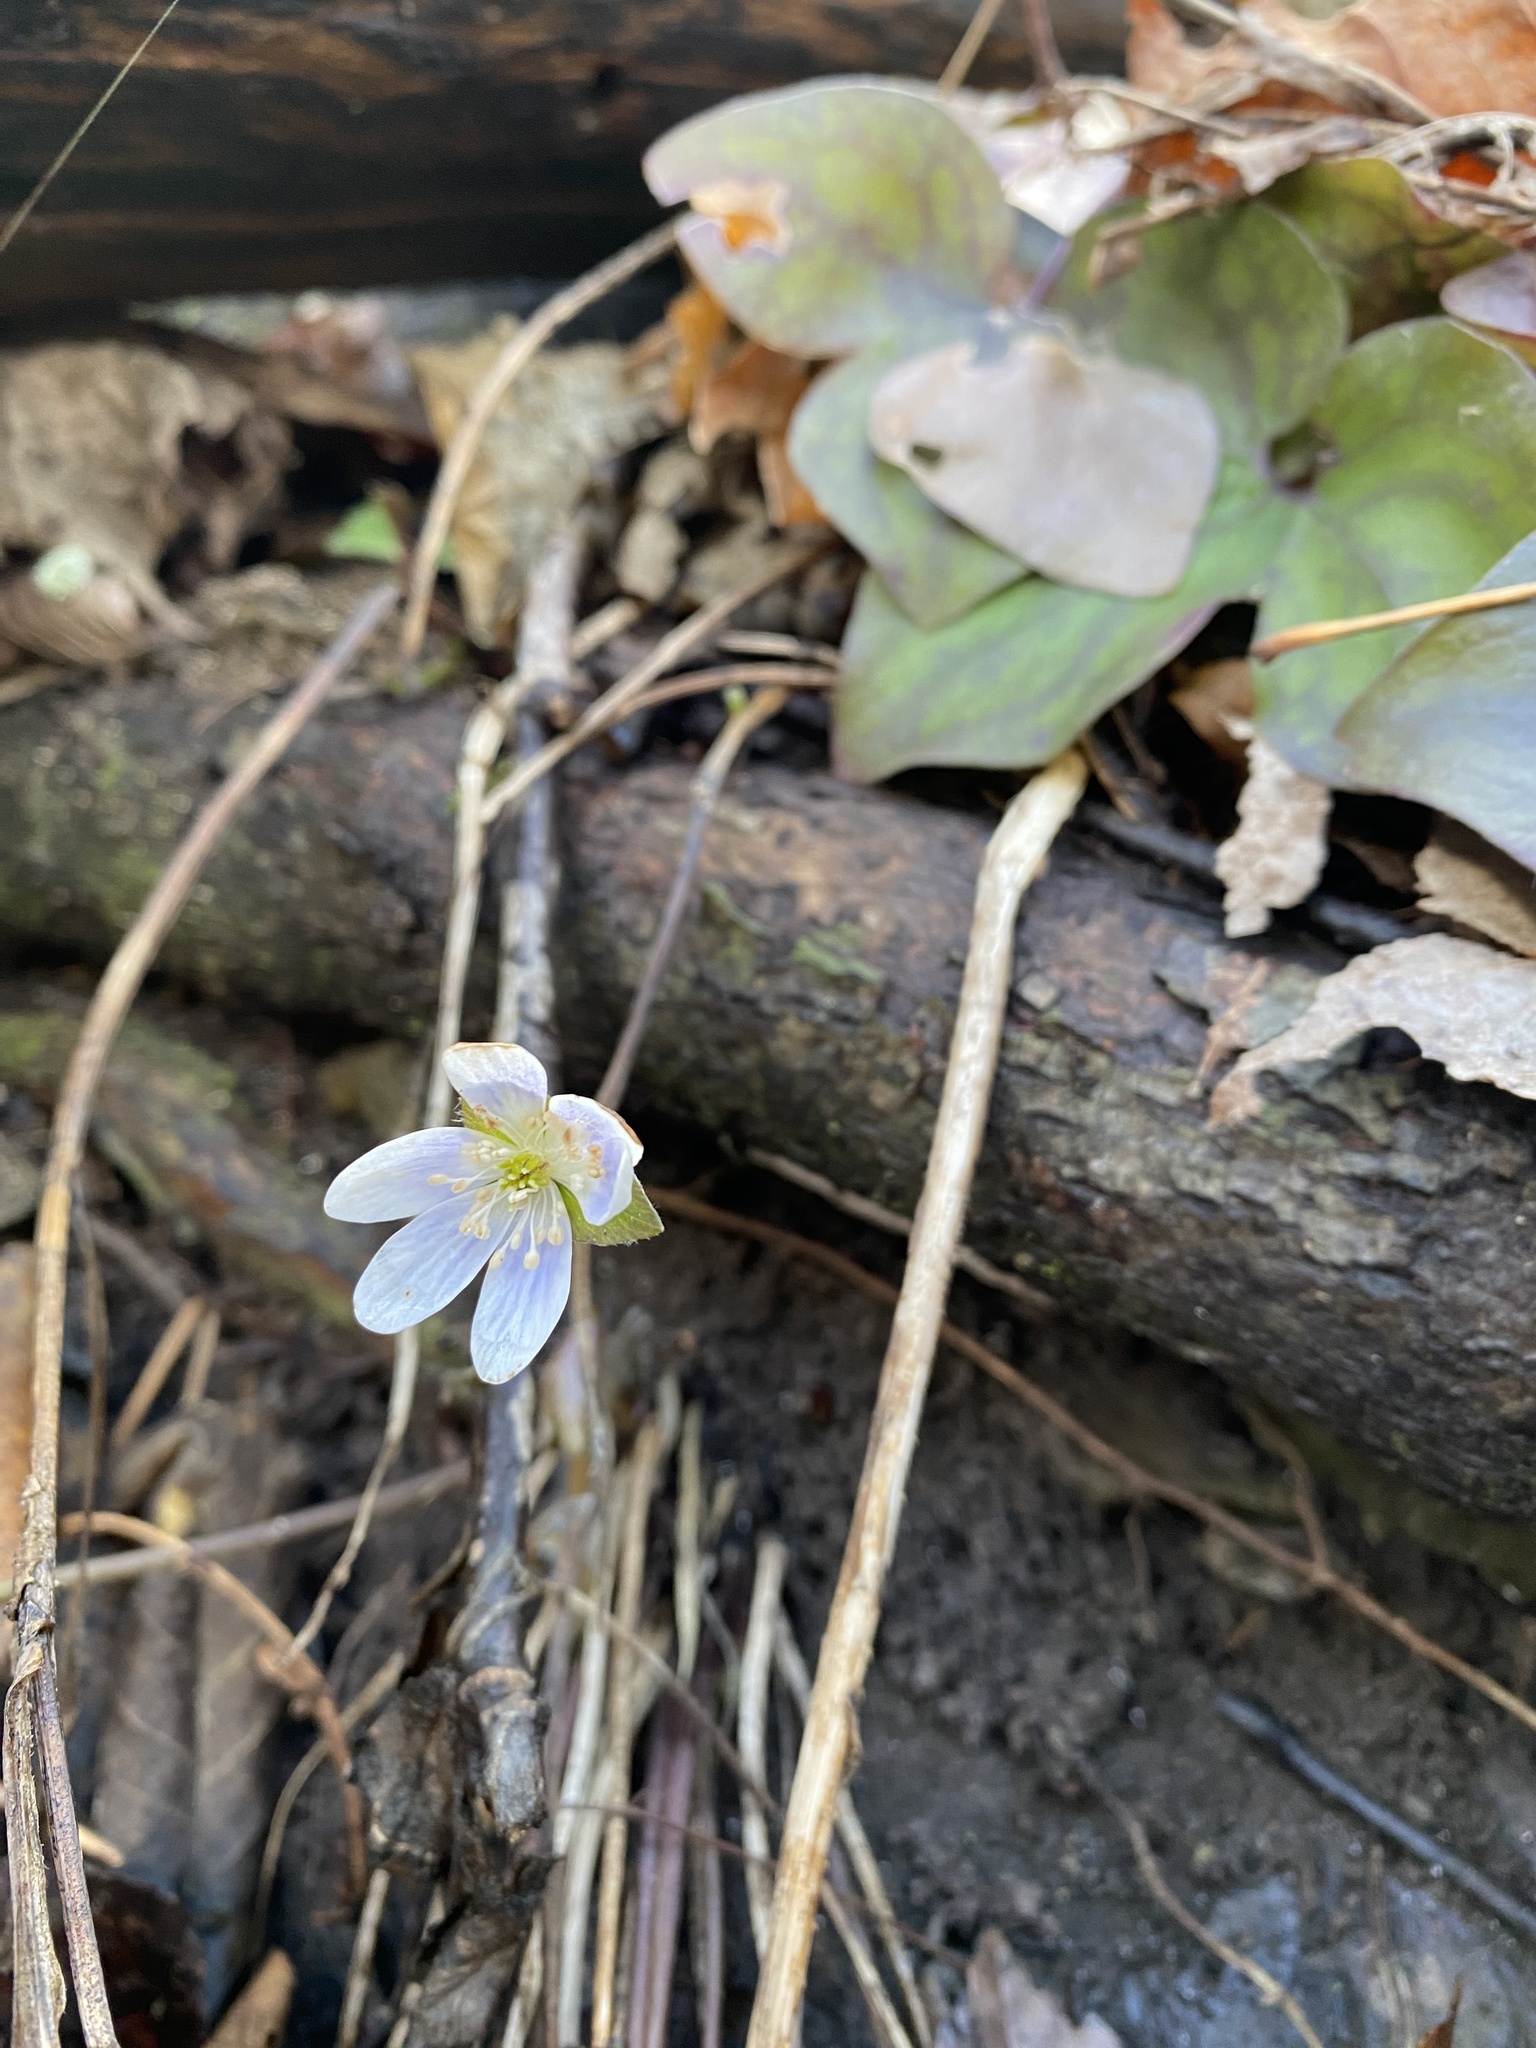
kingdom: Plantae
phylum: Tracheophyta
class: Magnoliopsida
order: Ranunculales
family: Ranunculaceae
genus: Hepatica
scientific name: Hepatica acutiloba
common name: Sharp-lobed hepatica
